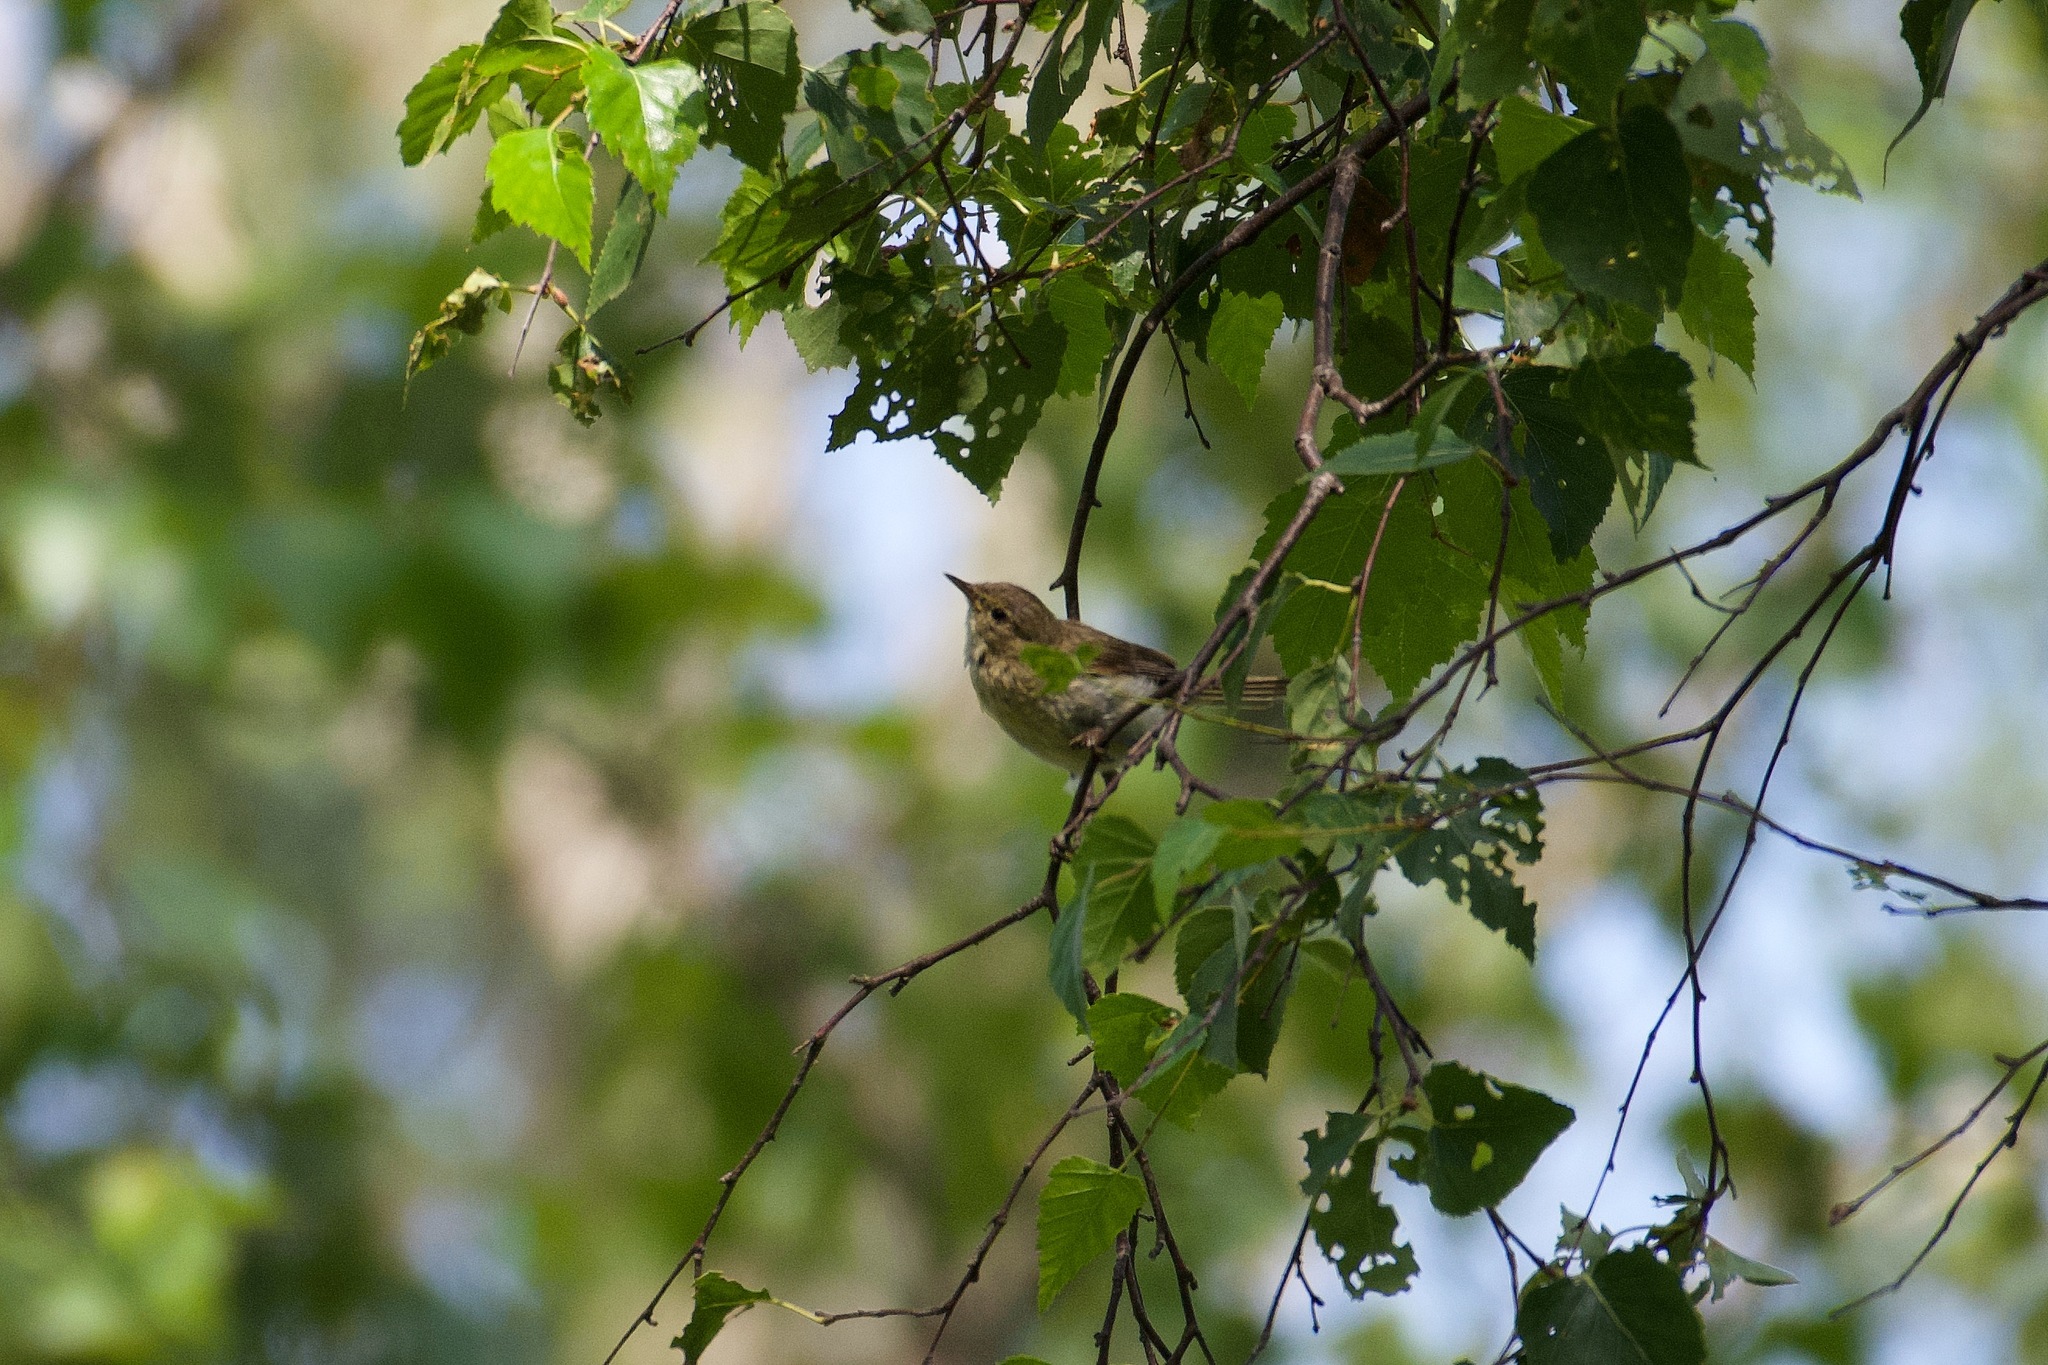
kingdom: Animalia
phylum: Chordata
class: Aves
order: Passeriformes
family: Phylloscopidae
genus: Phylloscopus
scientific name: Phylloscopus collybita
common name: Common chiffchaff
